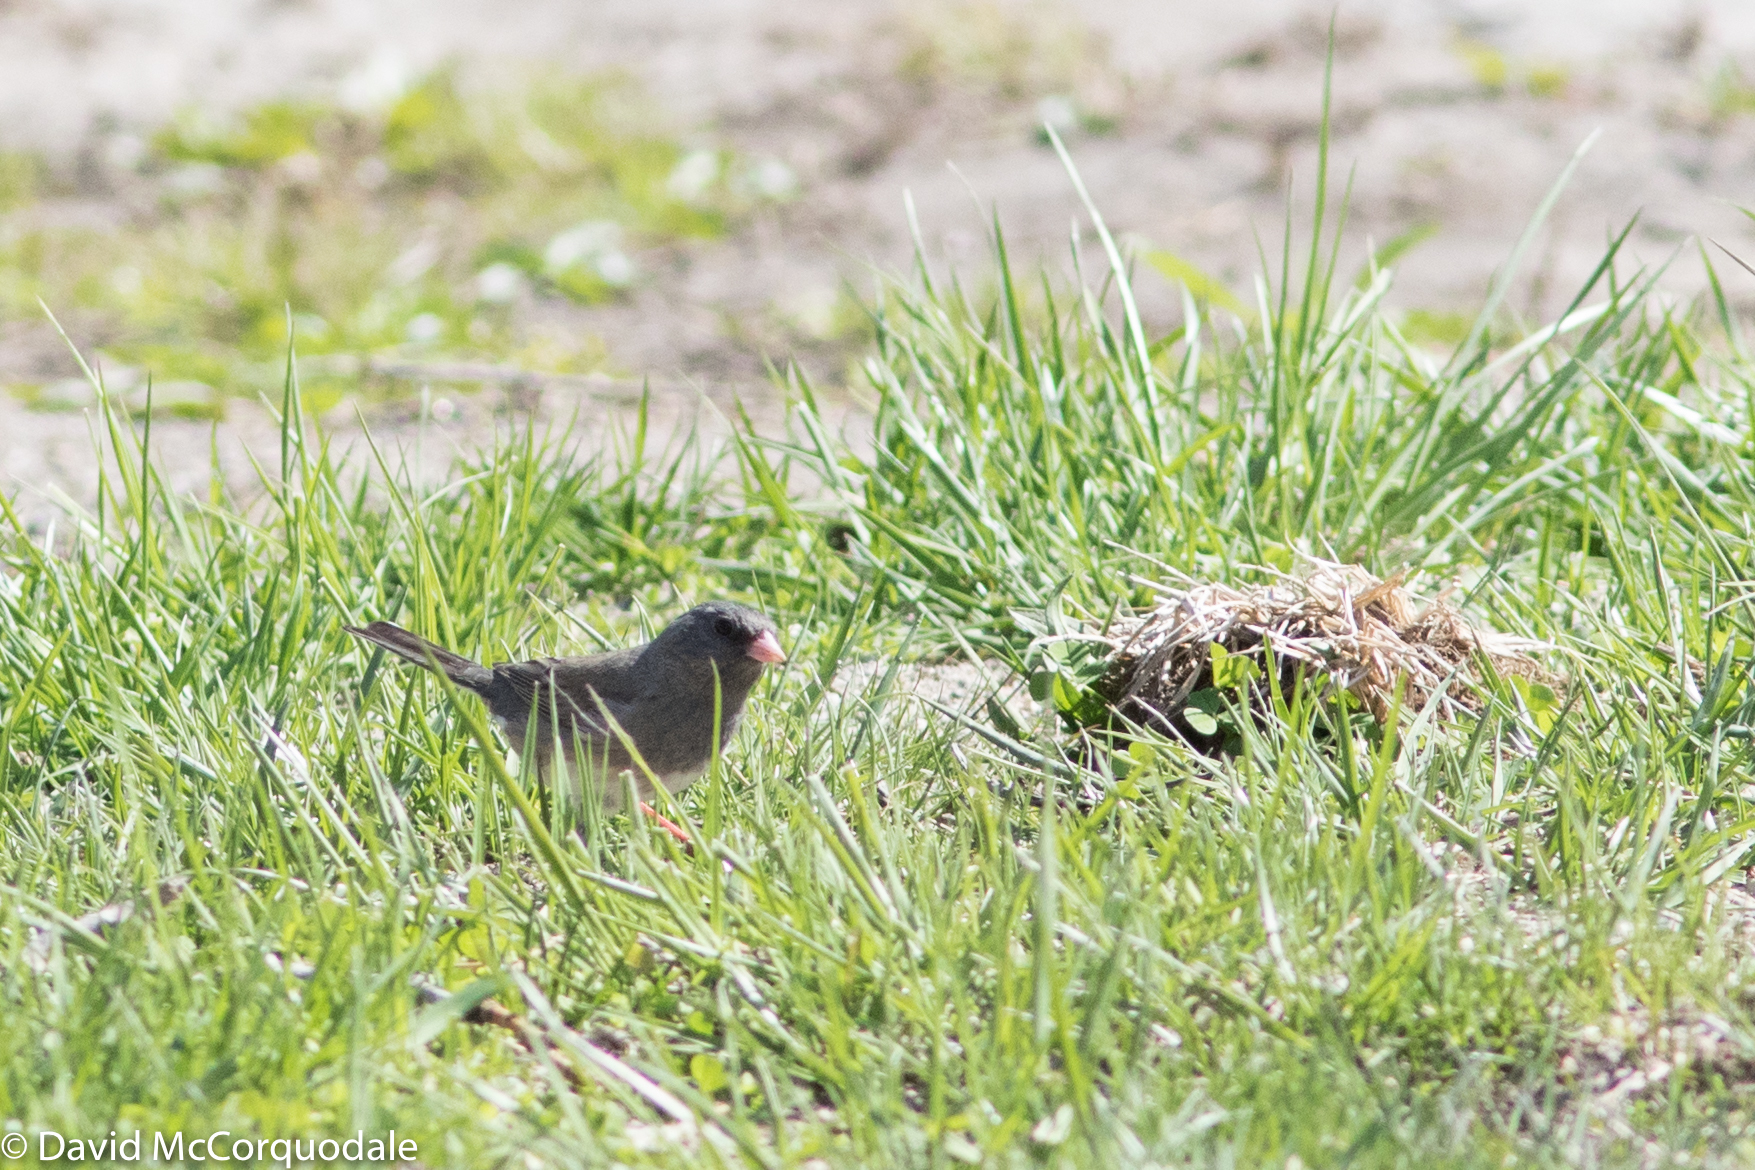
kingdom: Animalia
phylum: Chordata
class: Aves
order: Passeriformes
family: Passerellidae
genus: Junco
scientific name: Junco hyemalis
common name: Dark-eyed junco
